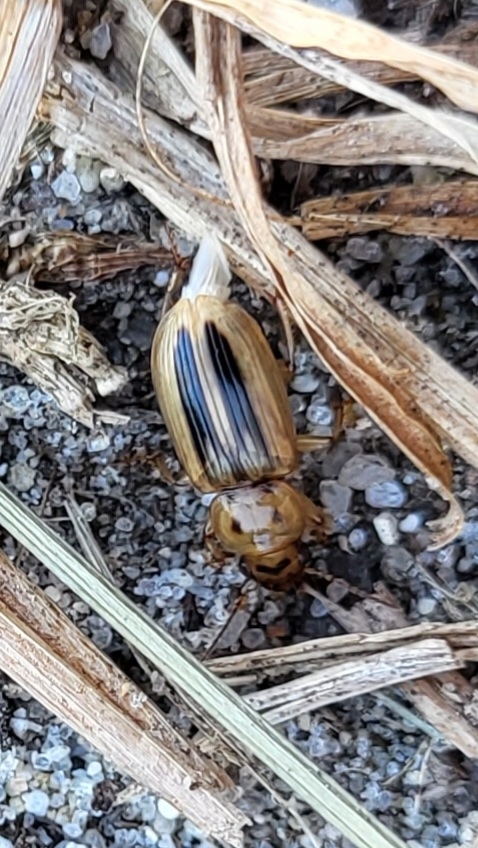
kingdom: Animalia
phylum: Arthropoda
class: Insecta
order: Coleoptera
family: Carabidae
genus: Stenolophus
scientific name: Stenolophus lineola
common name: Lined stenolophus
